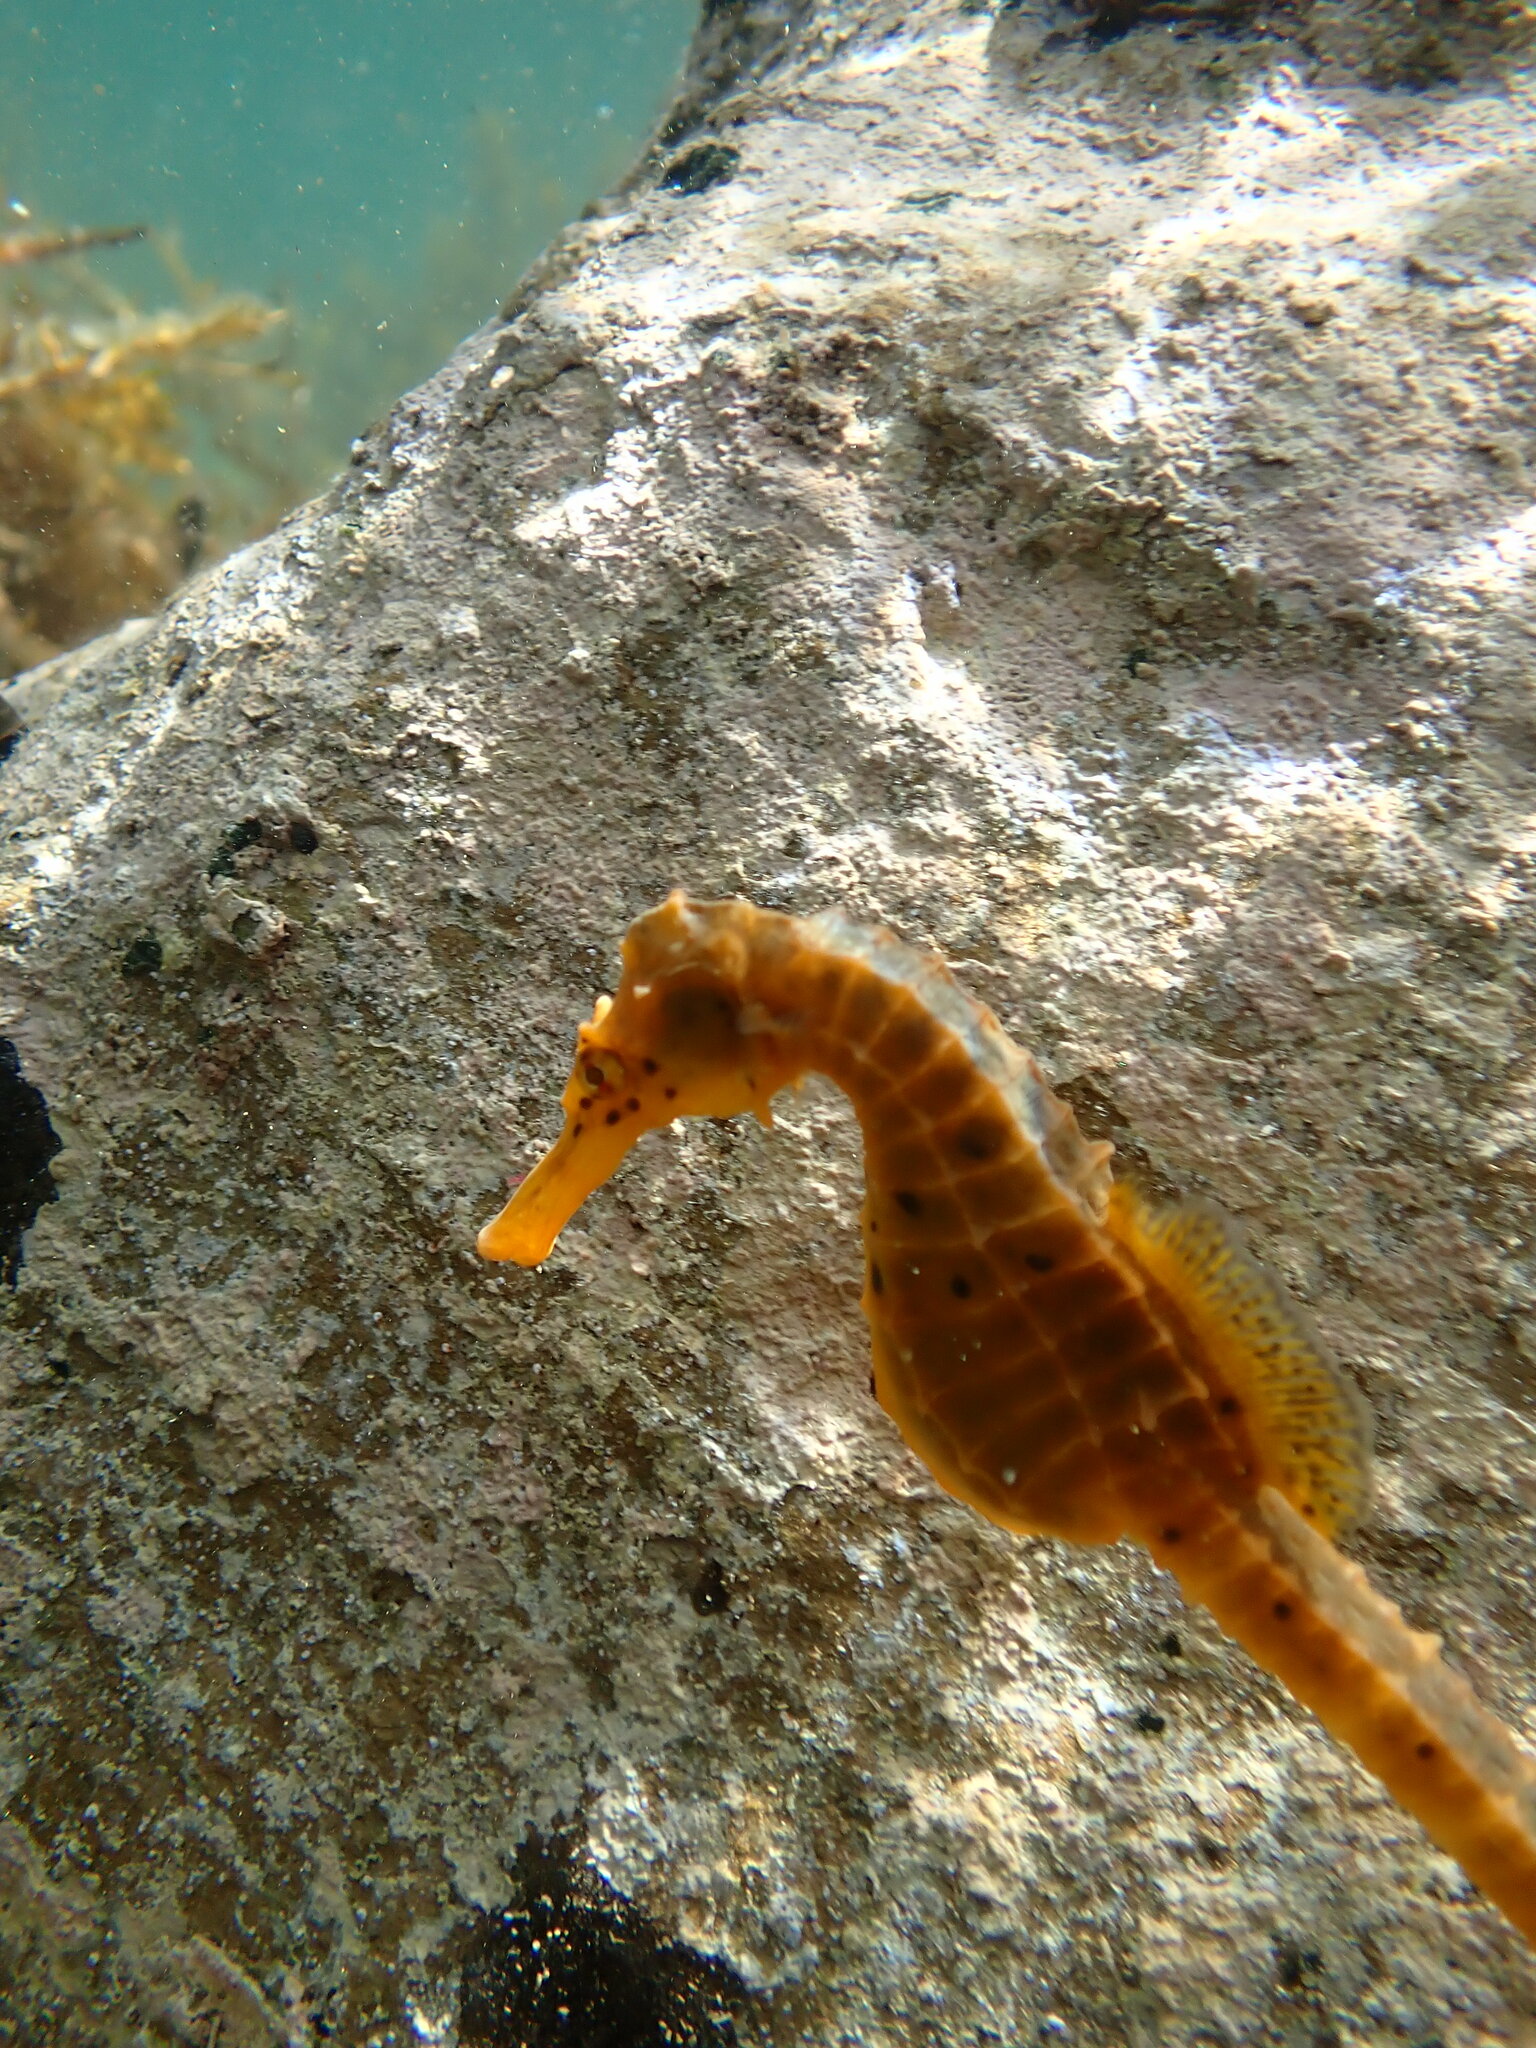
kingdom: Animalia
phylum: Chordata
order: Syngnathiformes
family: Syngnathidae
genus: Hippocampus
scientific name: Hippocampus abdominalis
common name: Big-belly seahorse
